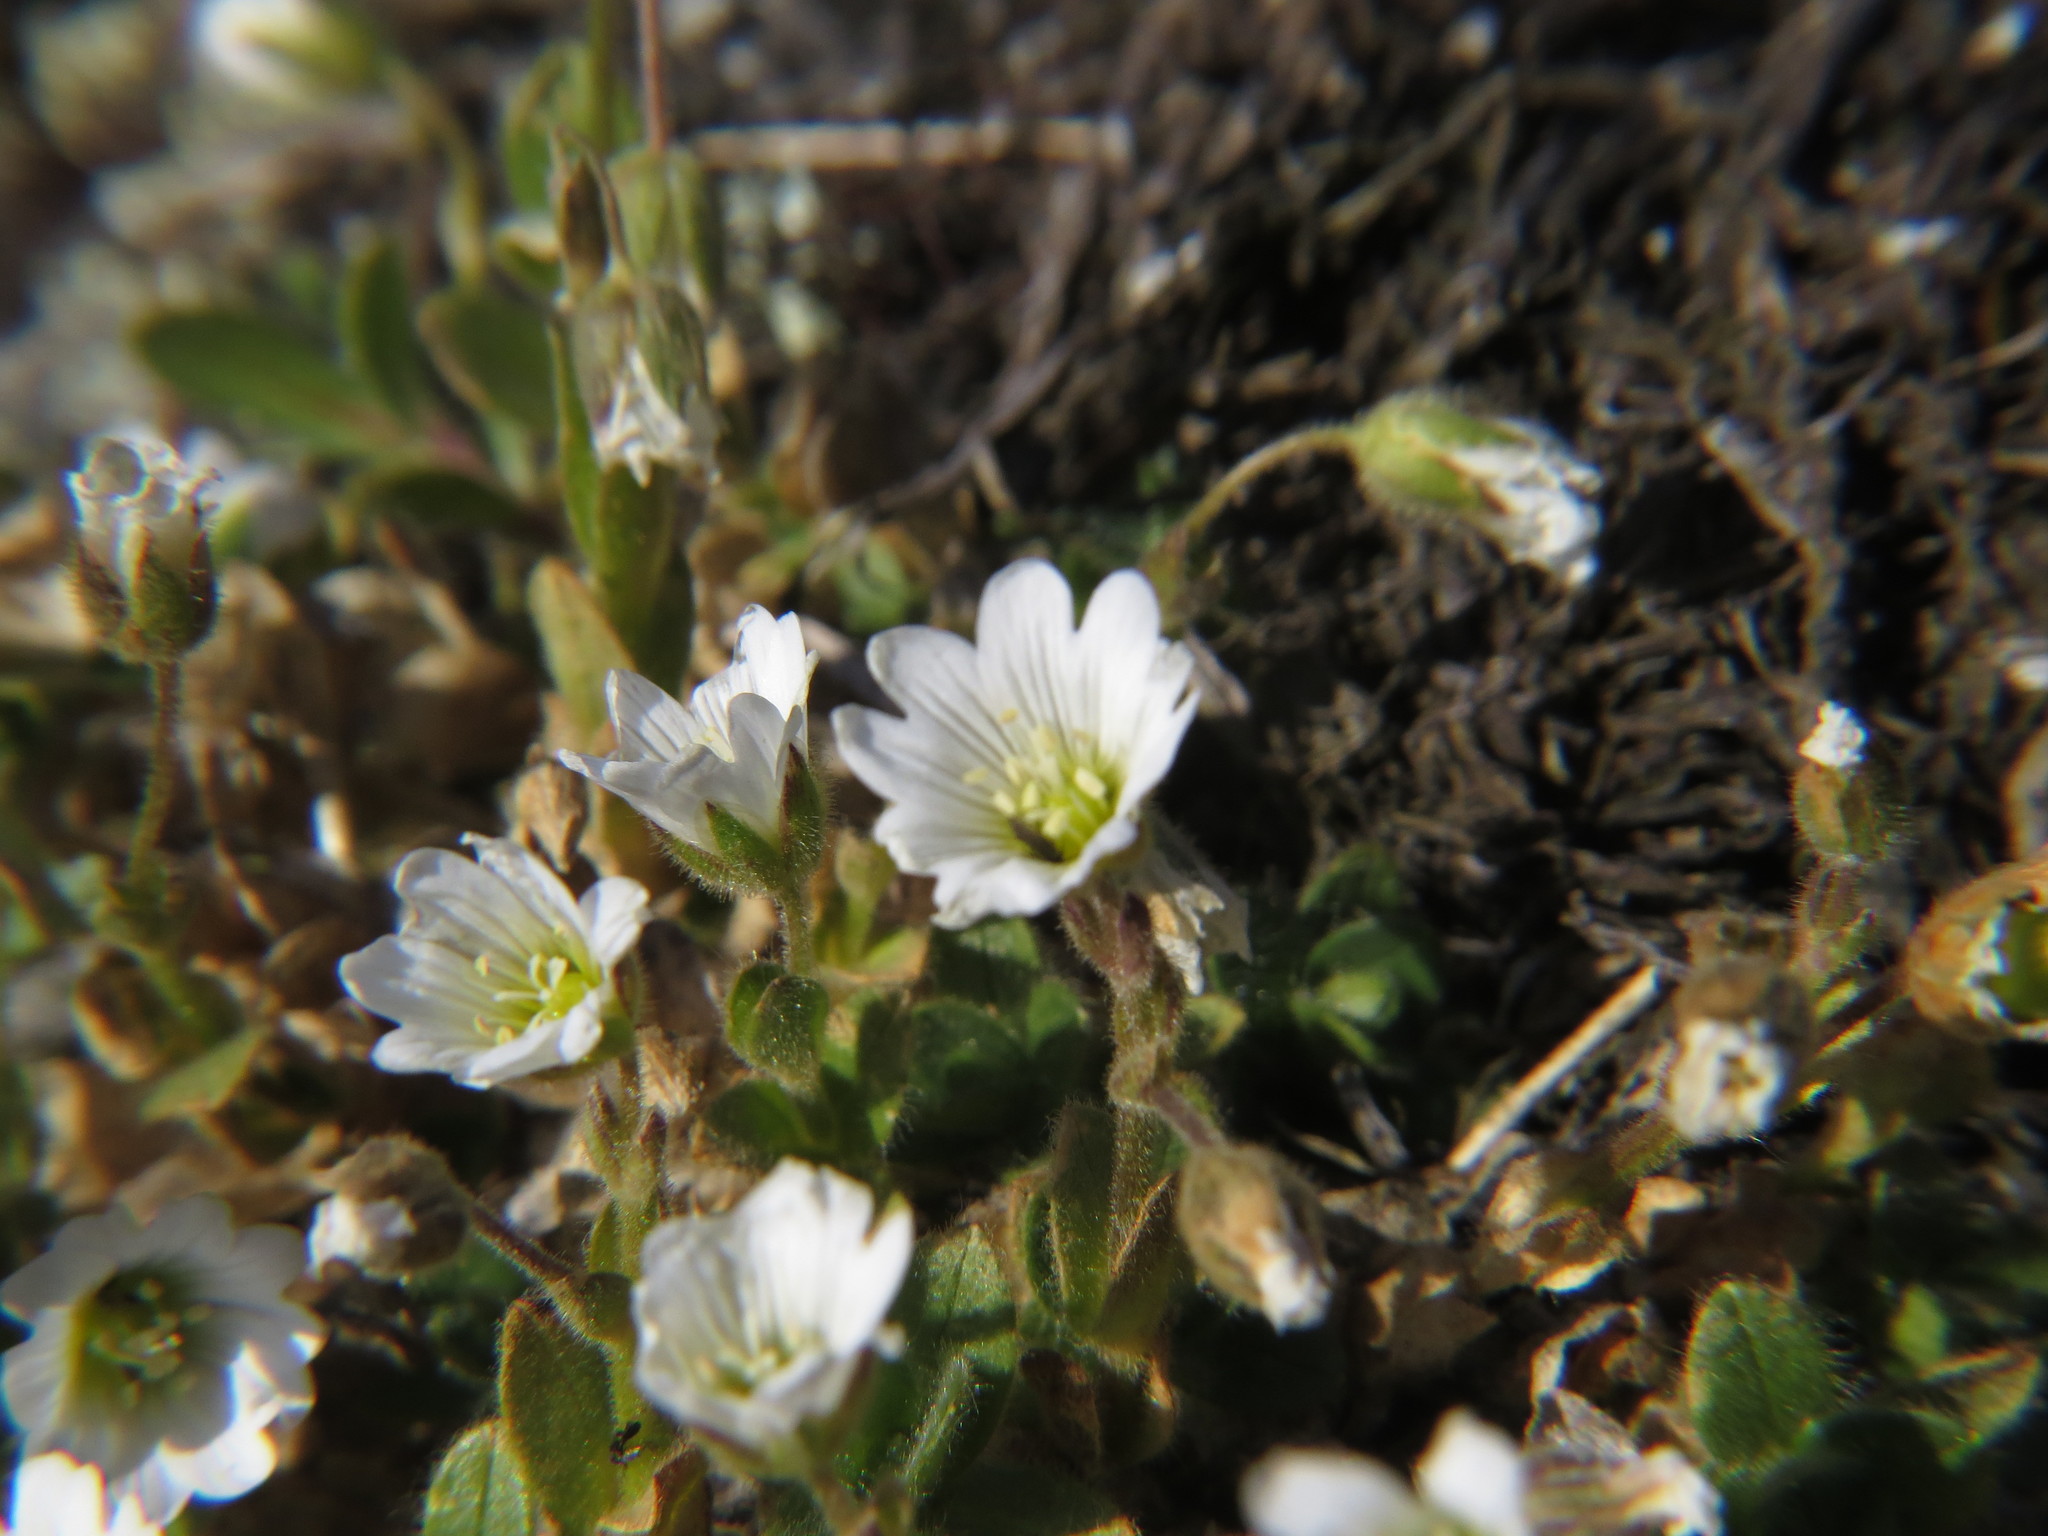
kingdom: Plantae
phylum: Tracheophyta
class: Magnoliopsida
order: Caryophyllales
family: Caryophyllaceae
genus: Cerastium
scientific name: Cerastium arcticum
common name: Arctic mouse-ear
